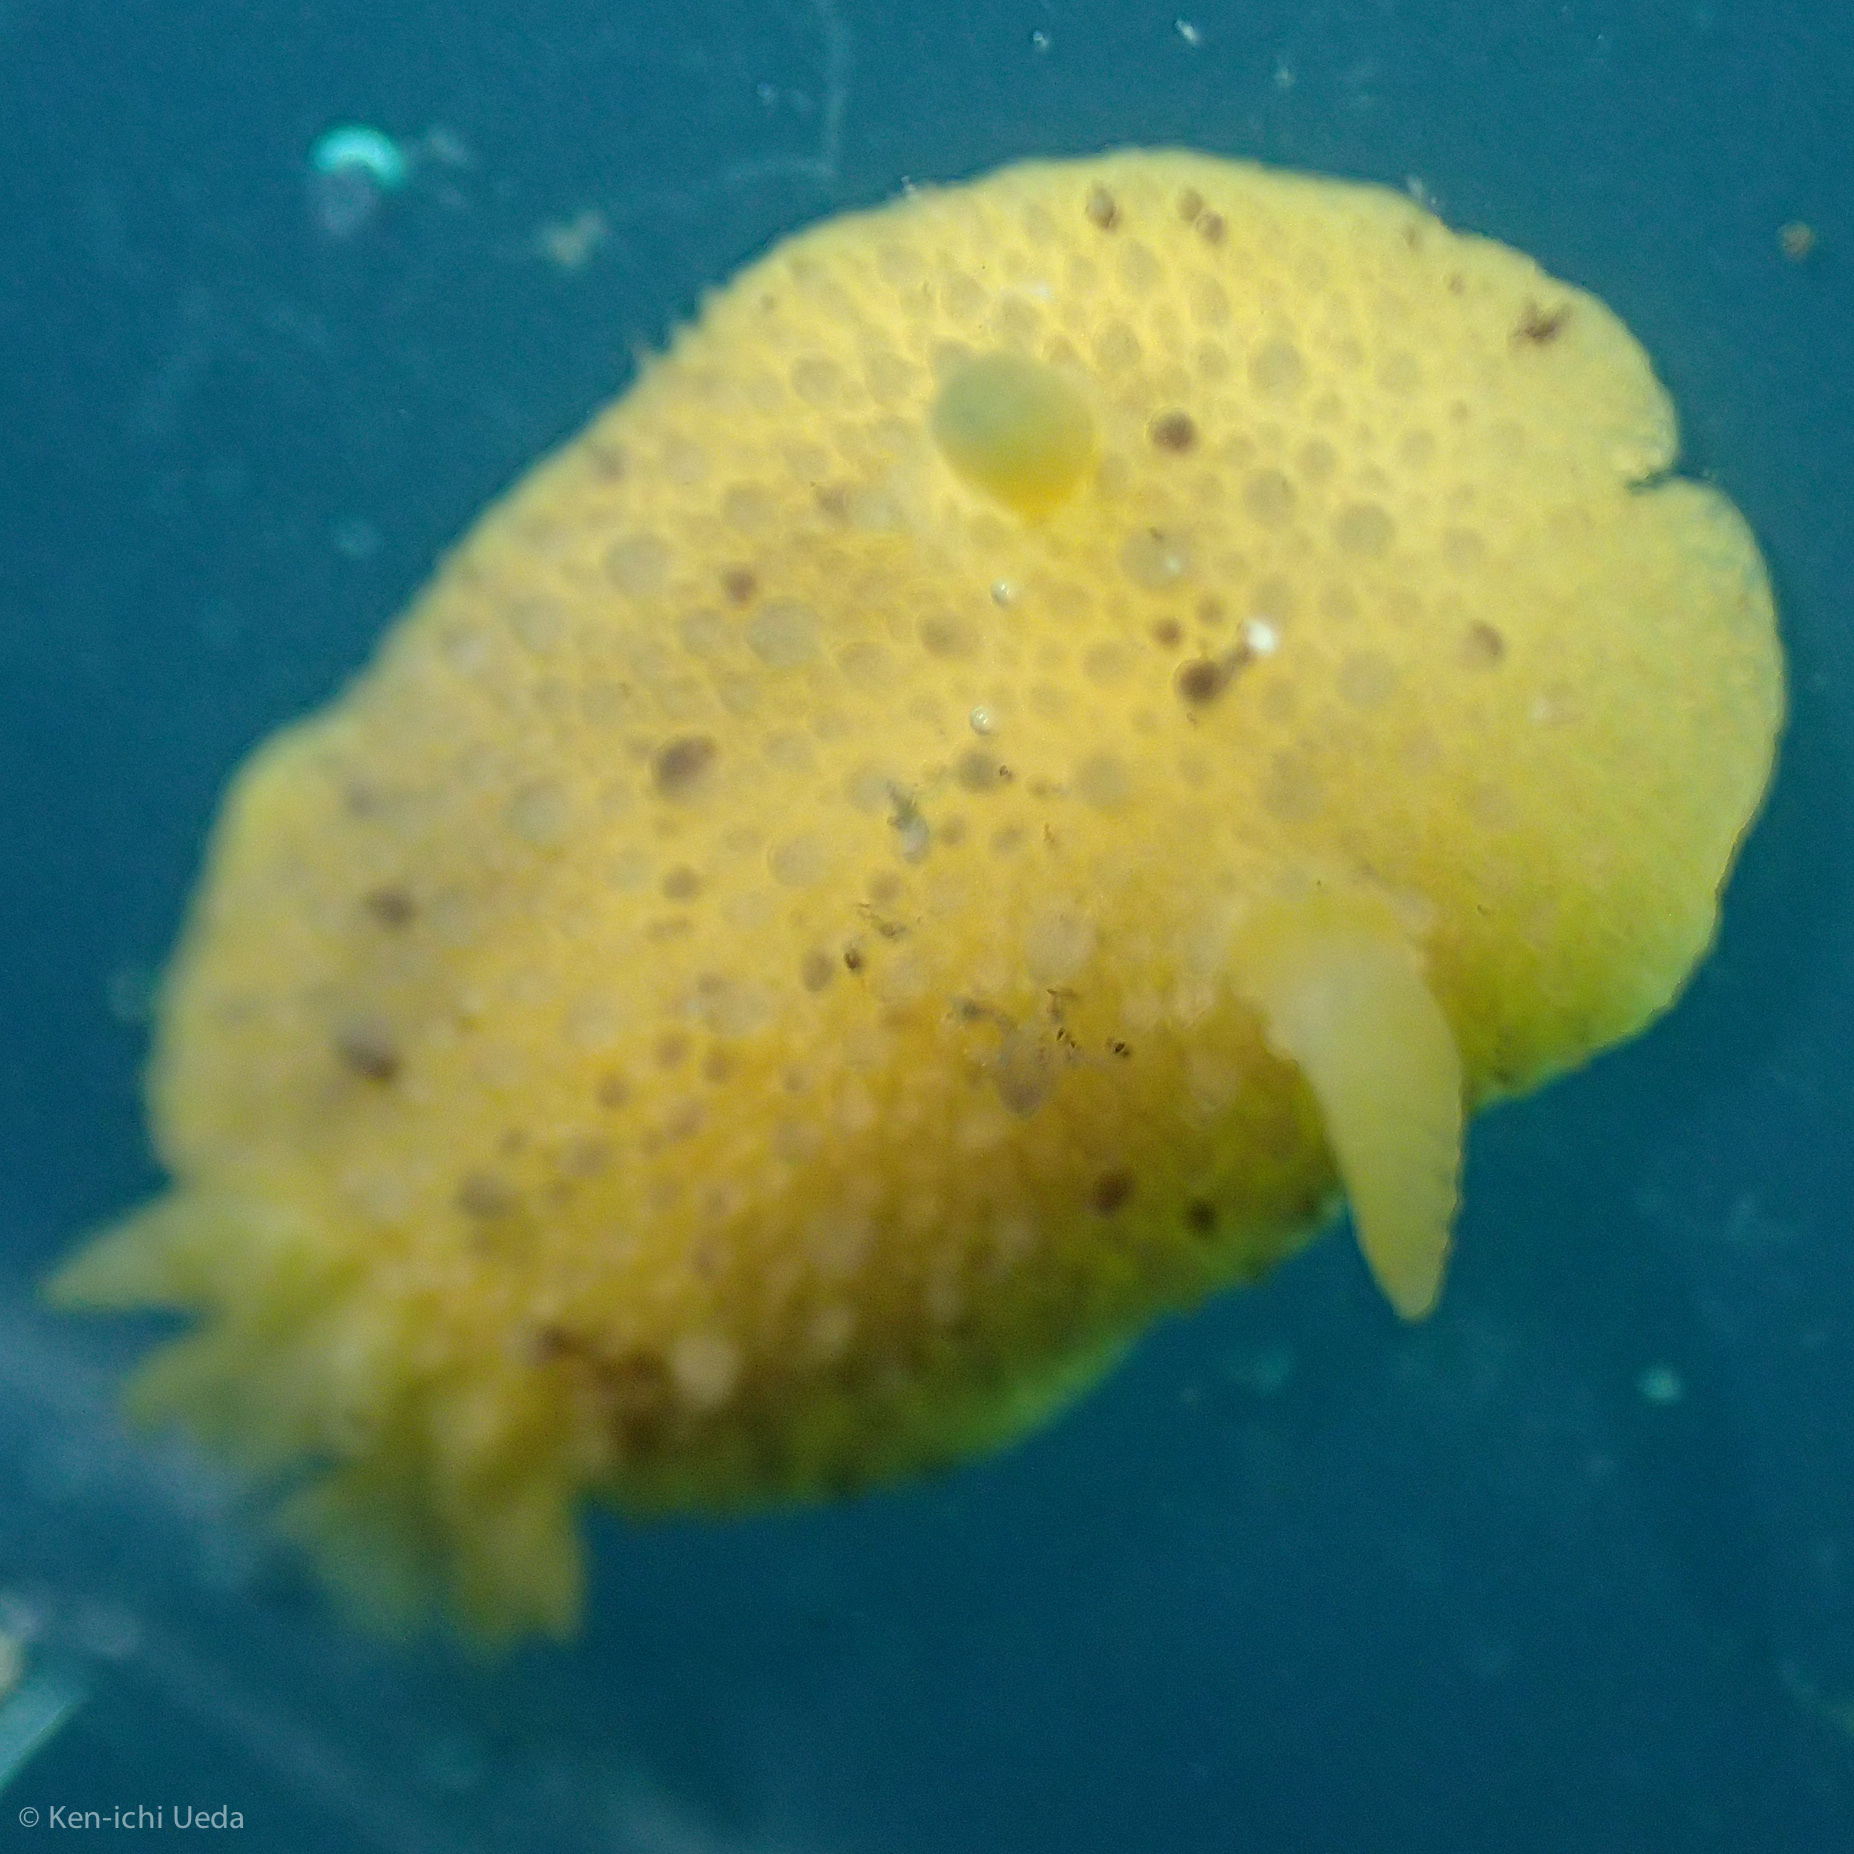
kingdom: Animalia
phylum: Mollusca
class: Gastropoda
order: Nudibranchia
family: Dorididae
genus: Doris
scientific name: Doris montereyensis
